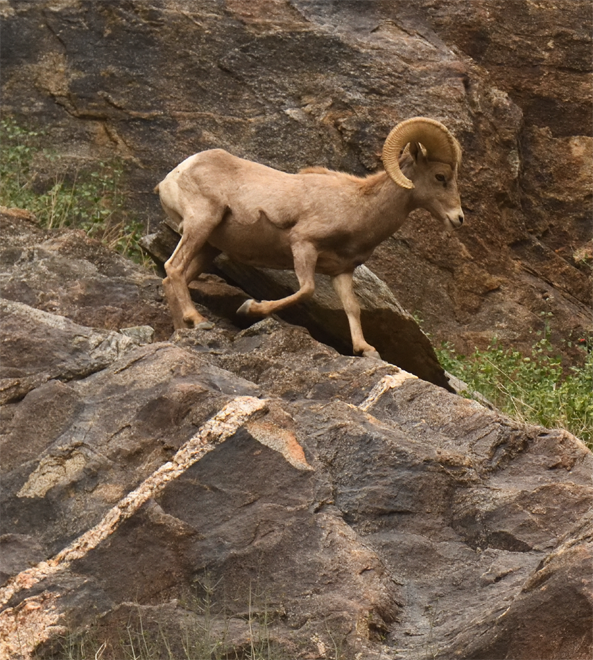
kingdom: Animalia
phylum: Chordata
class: Mammalia
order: Artiodactyla
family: Bovidae
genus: Ovis
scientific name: Ovis canadensis
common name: Bighorn sheep
